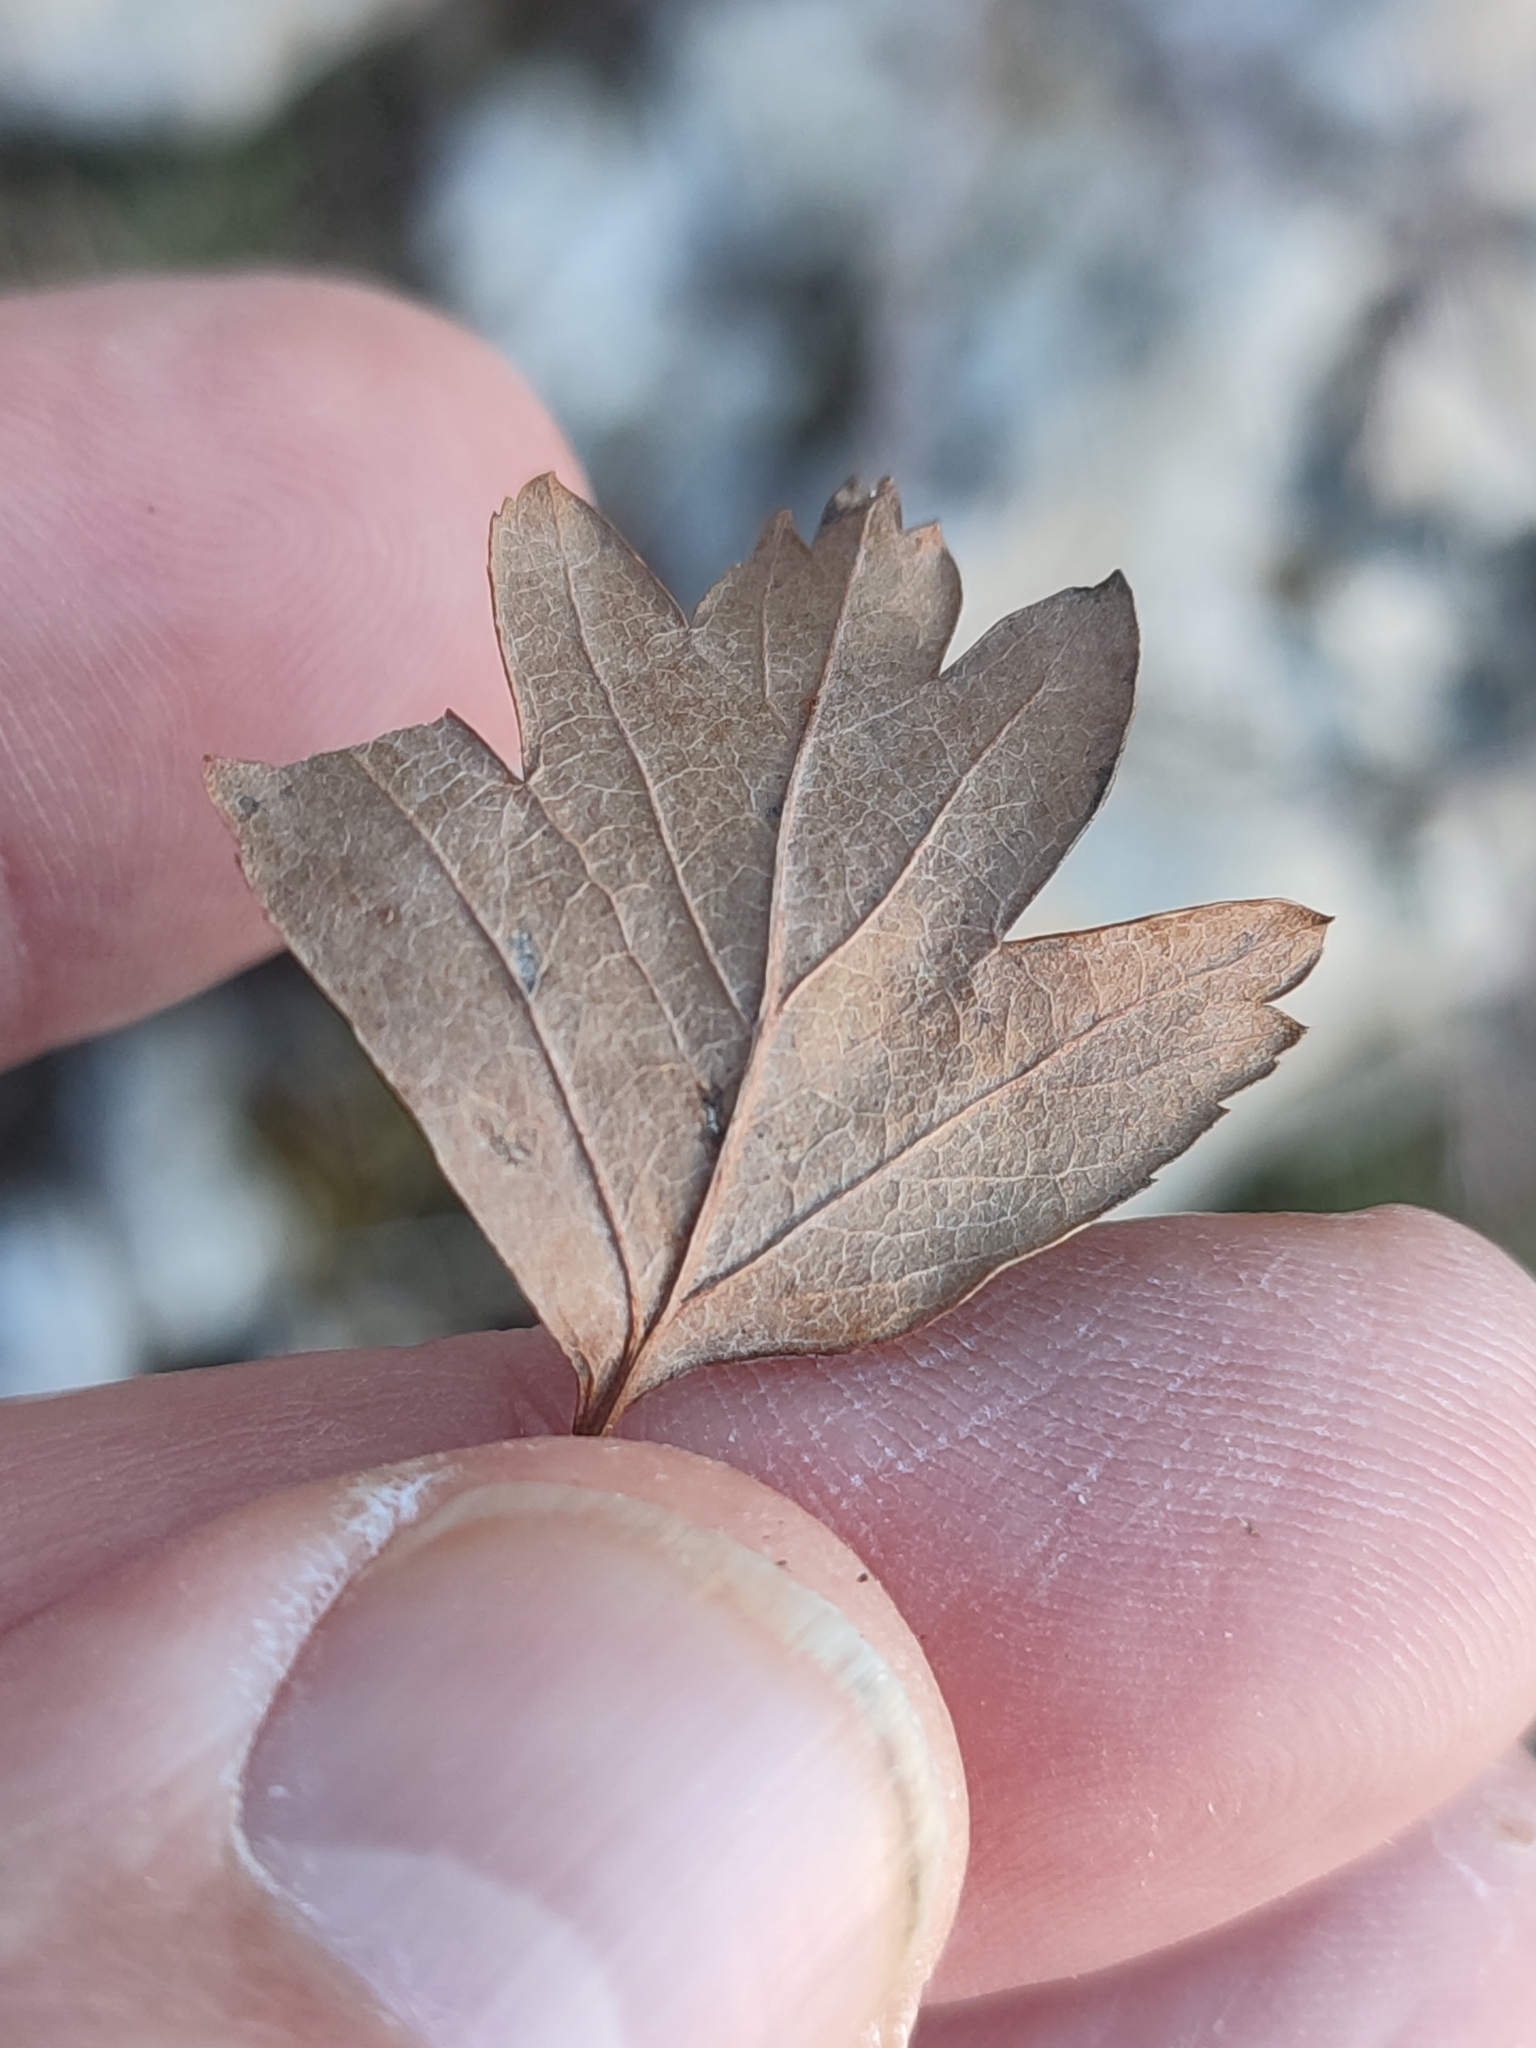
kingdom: Plantae
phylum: Tracheophyta
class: Magnoliopsida
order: Rosales
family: Rosaceae
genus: Crataegus
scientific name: Crataegus monogyna
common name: Hawthorn
